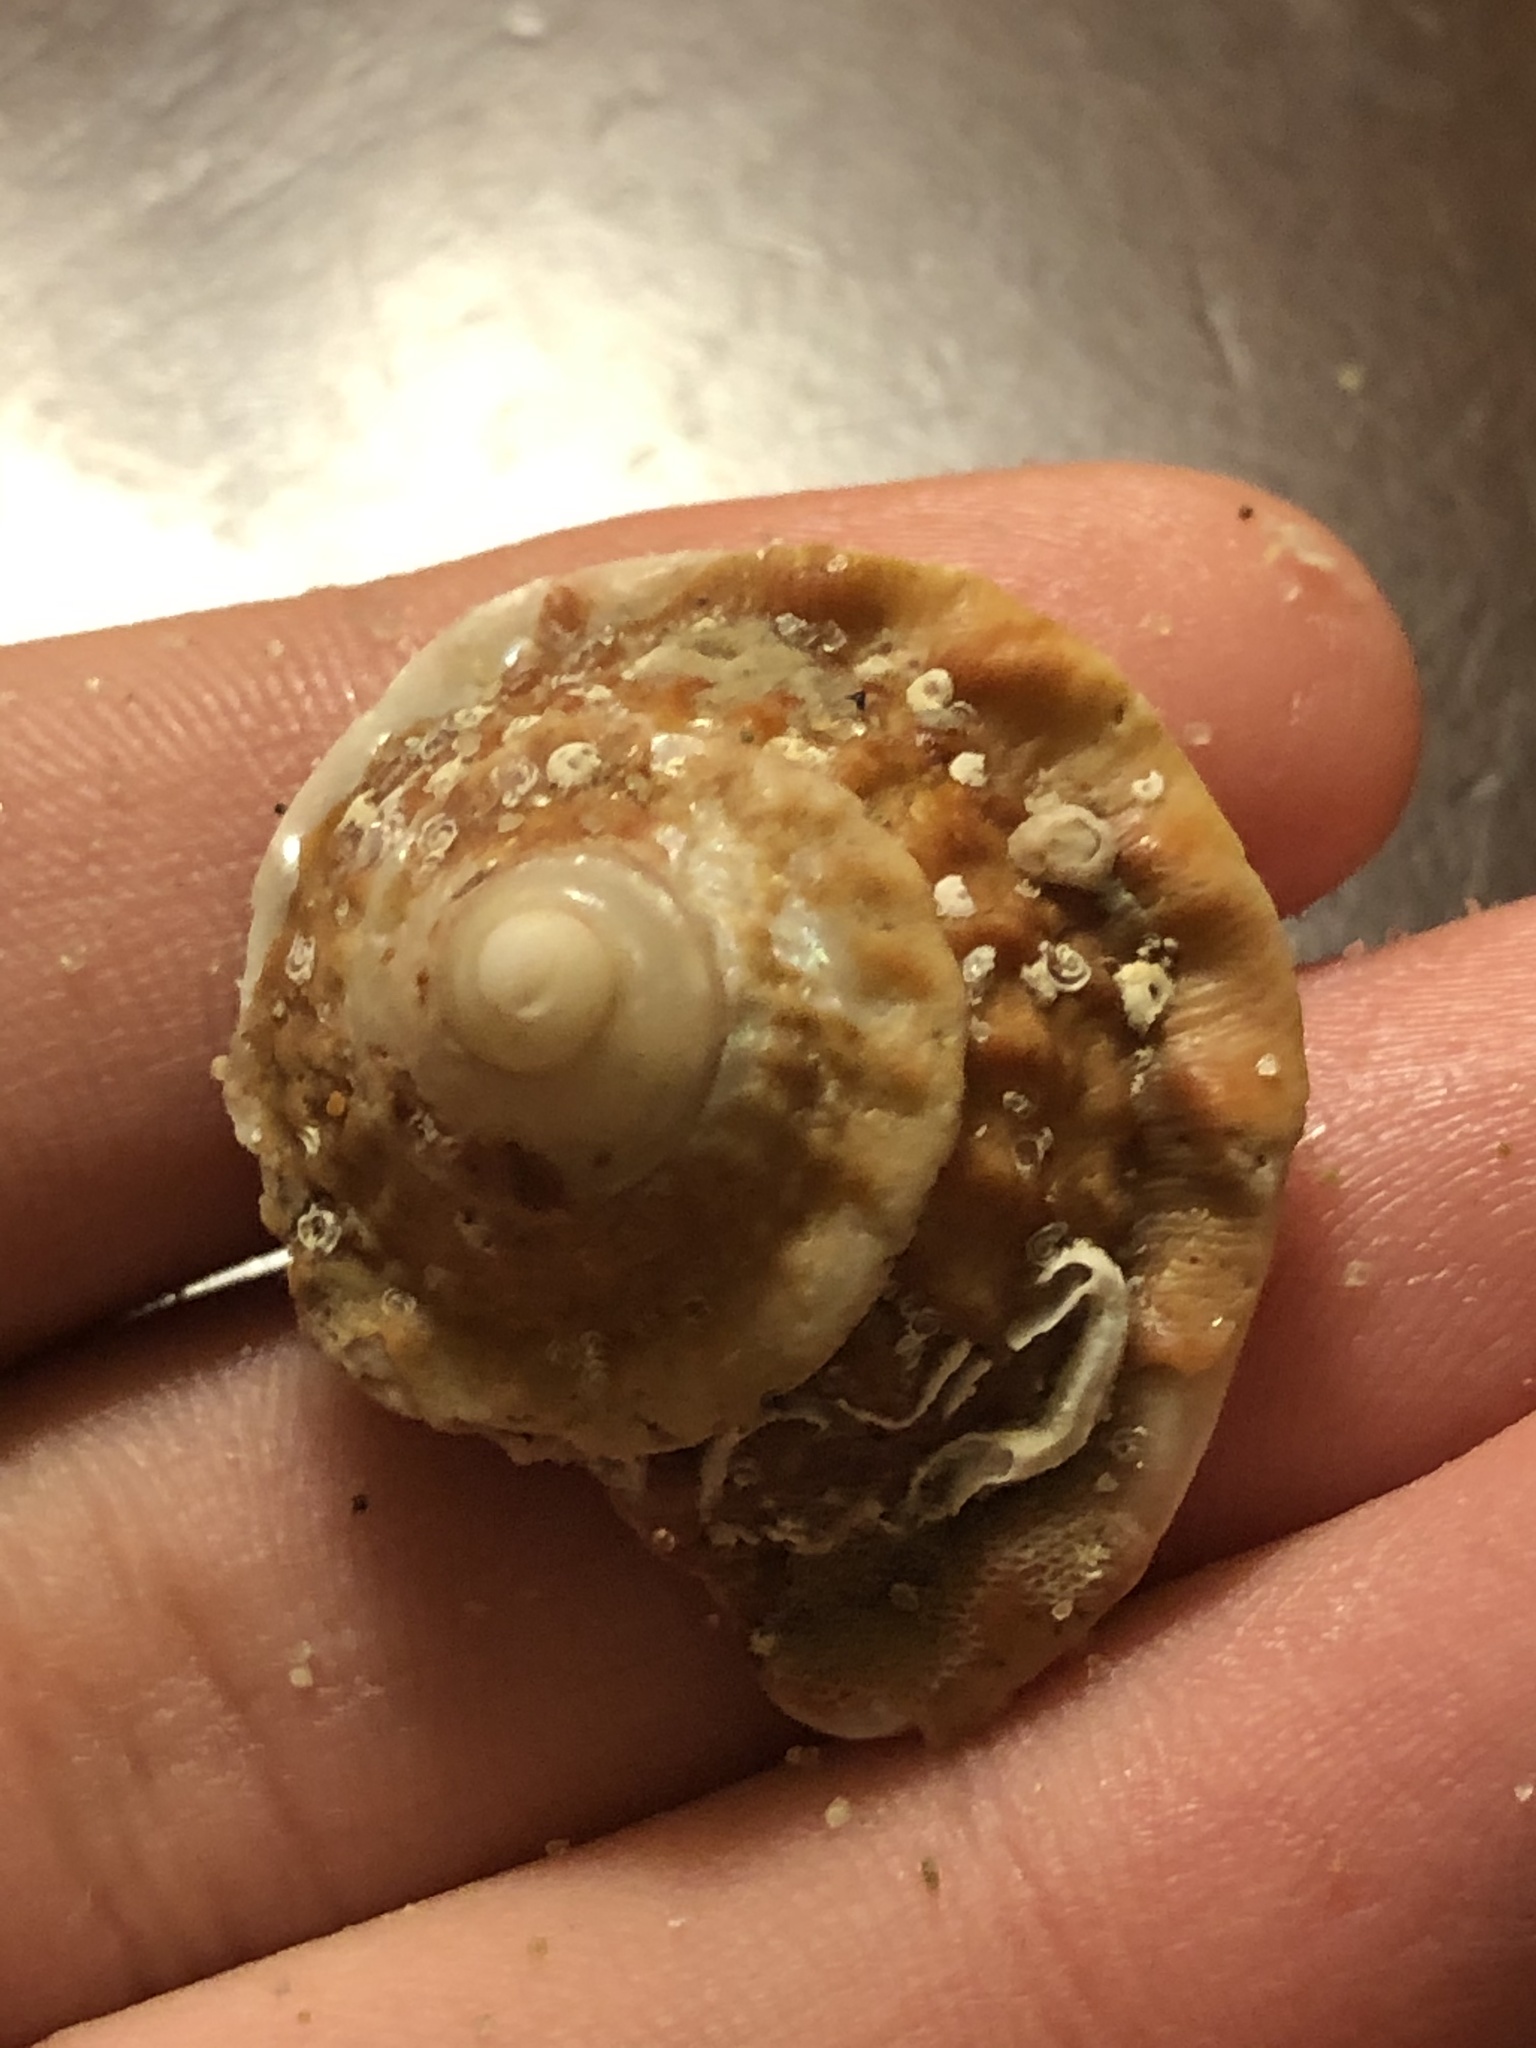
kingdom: Animalia
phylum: Mollusca
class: Gastropoda
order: Trochida
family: Turbinidae
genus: Megastraea
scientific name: Megastraea undosa
